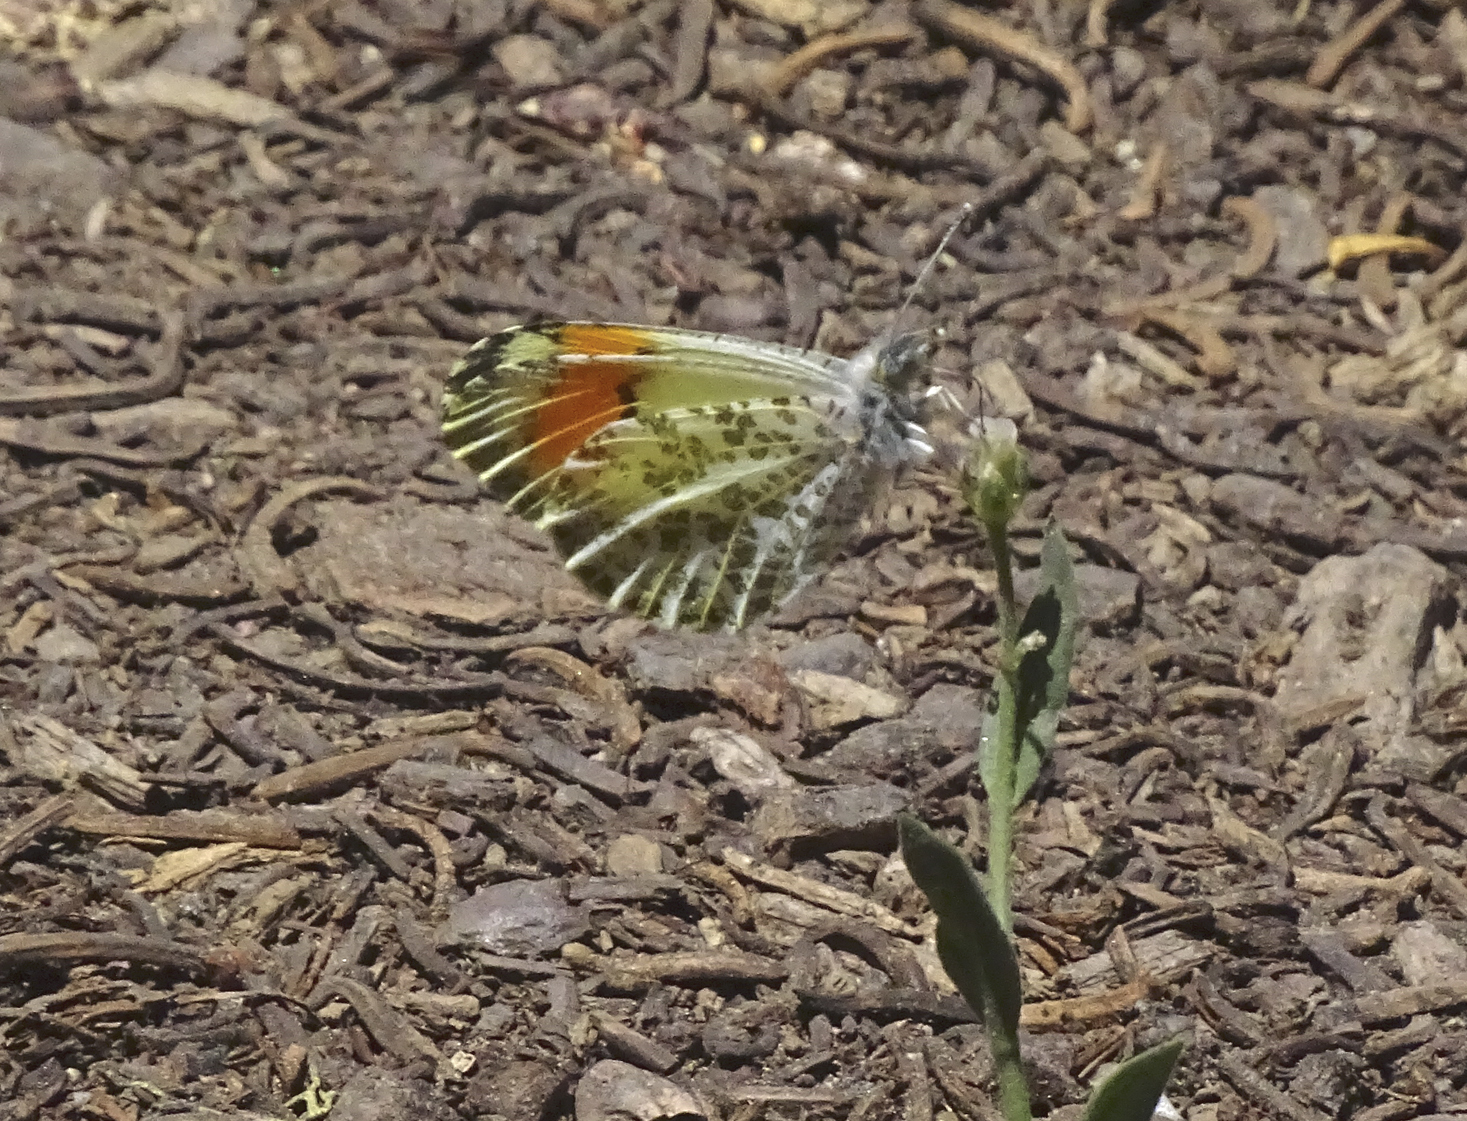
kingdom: Animalia
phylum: Arthropoda
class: Insecta
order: Lepidoptera
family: Pieridae
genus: Anthocharis
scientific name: Anthocharis julia
